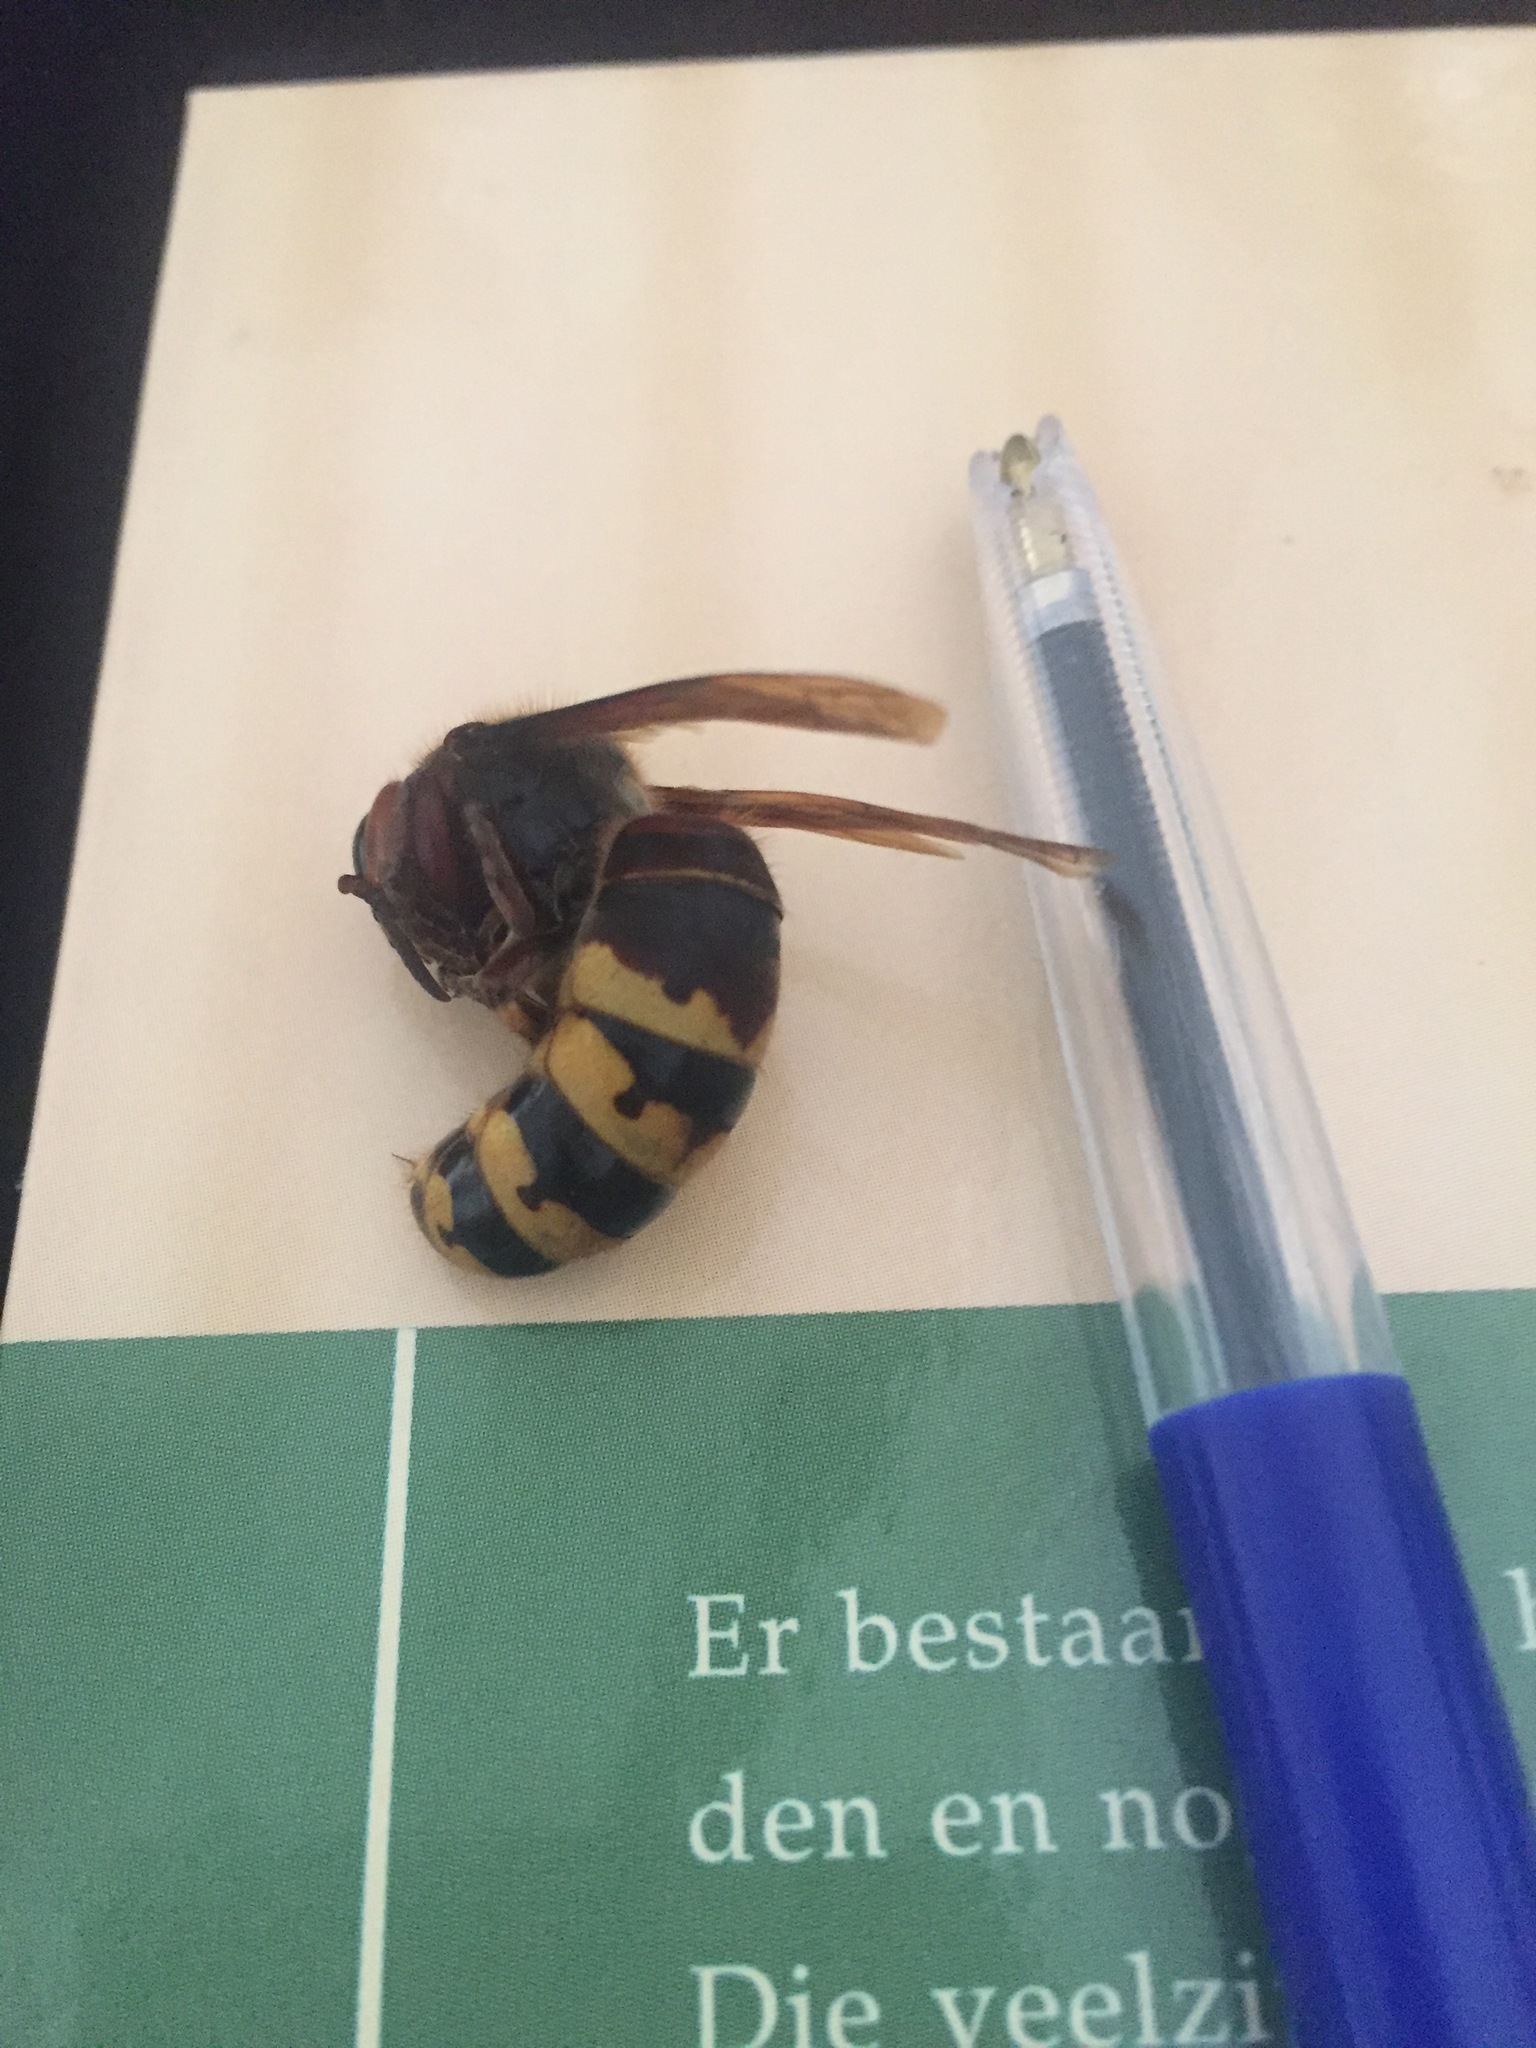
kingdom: Animalia
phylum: Arthropoda
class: Insecta
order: Hymenoptera
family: Vespidae
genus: Vespa
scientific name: Vespa crabro
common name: Hornet
